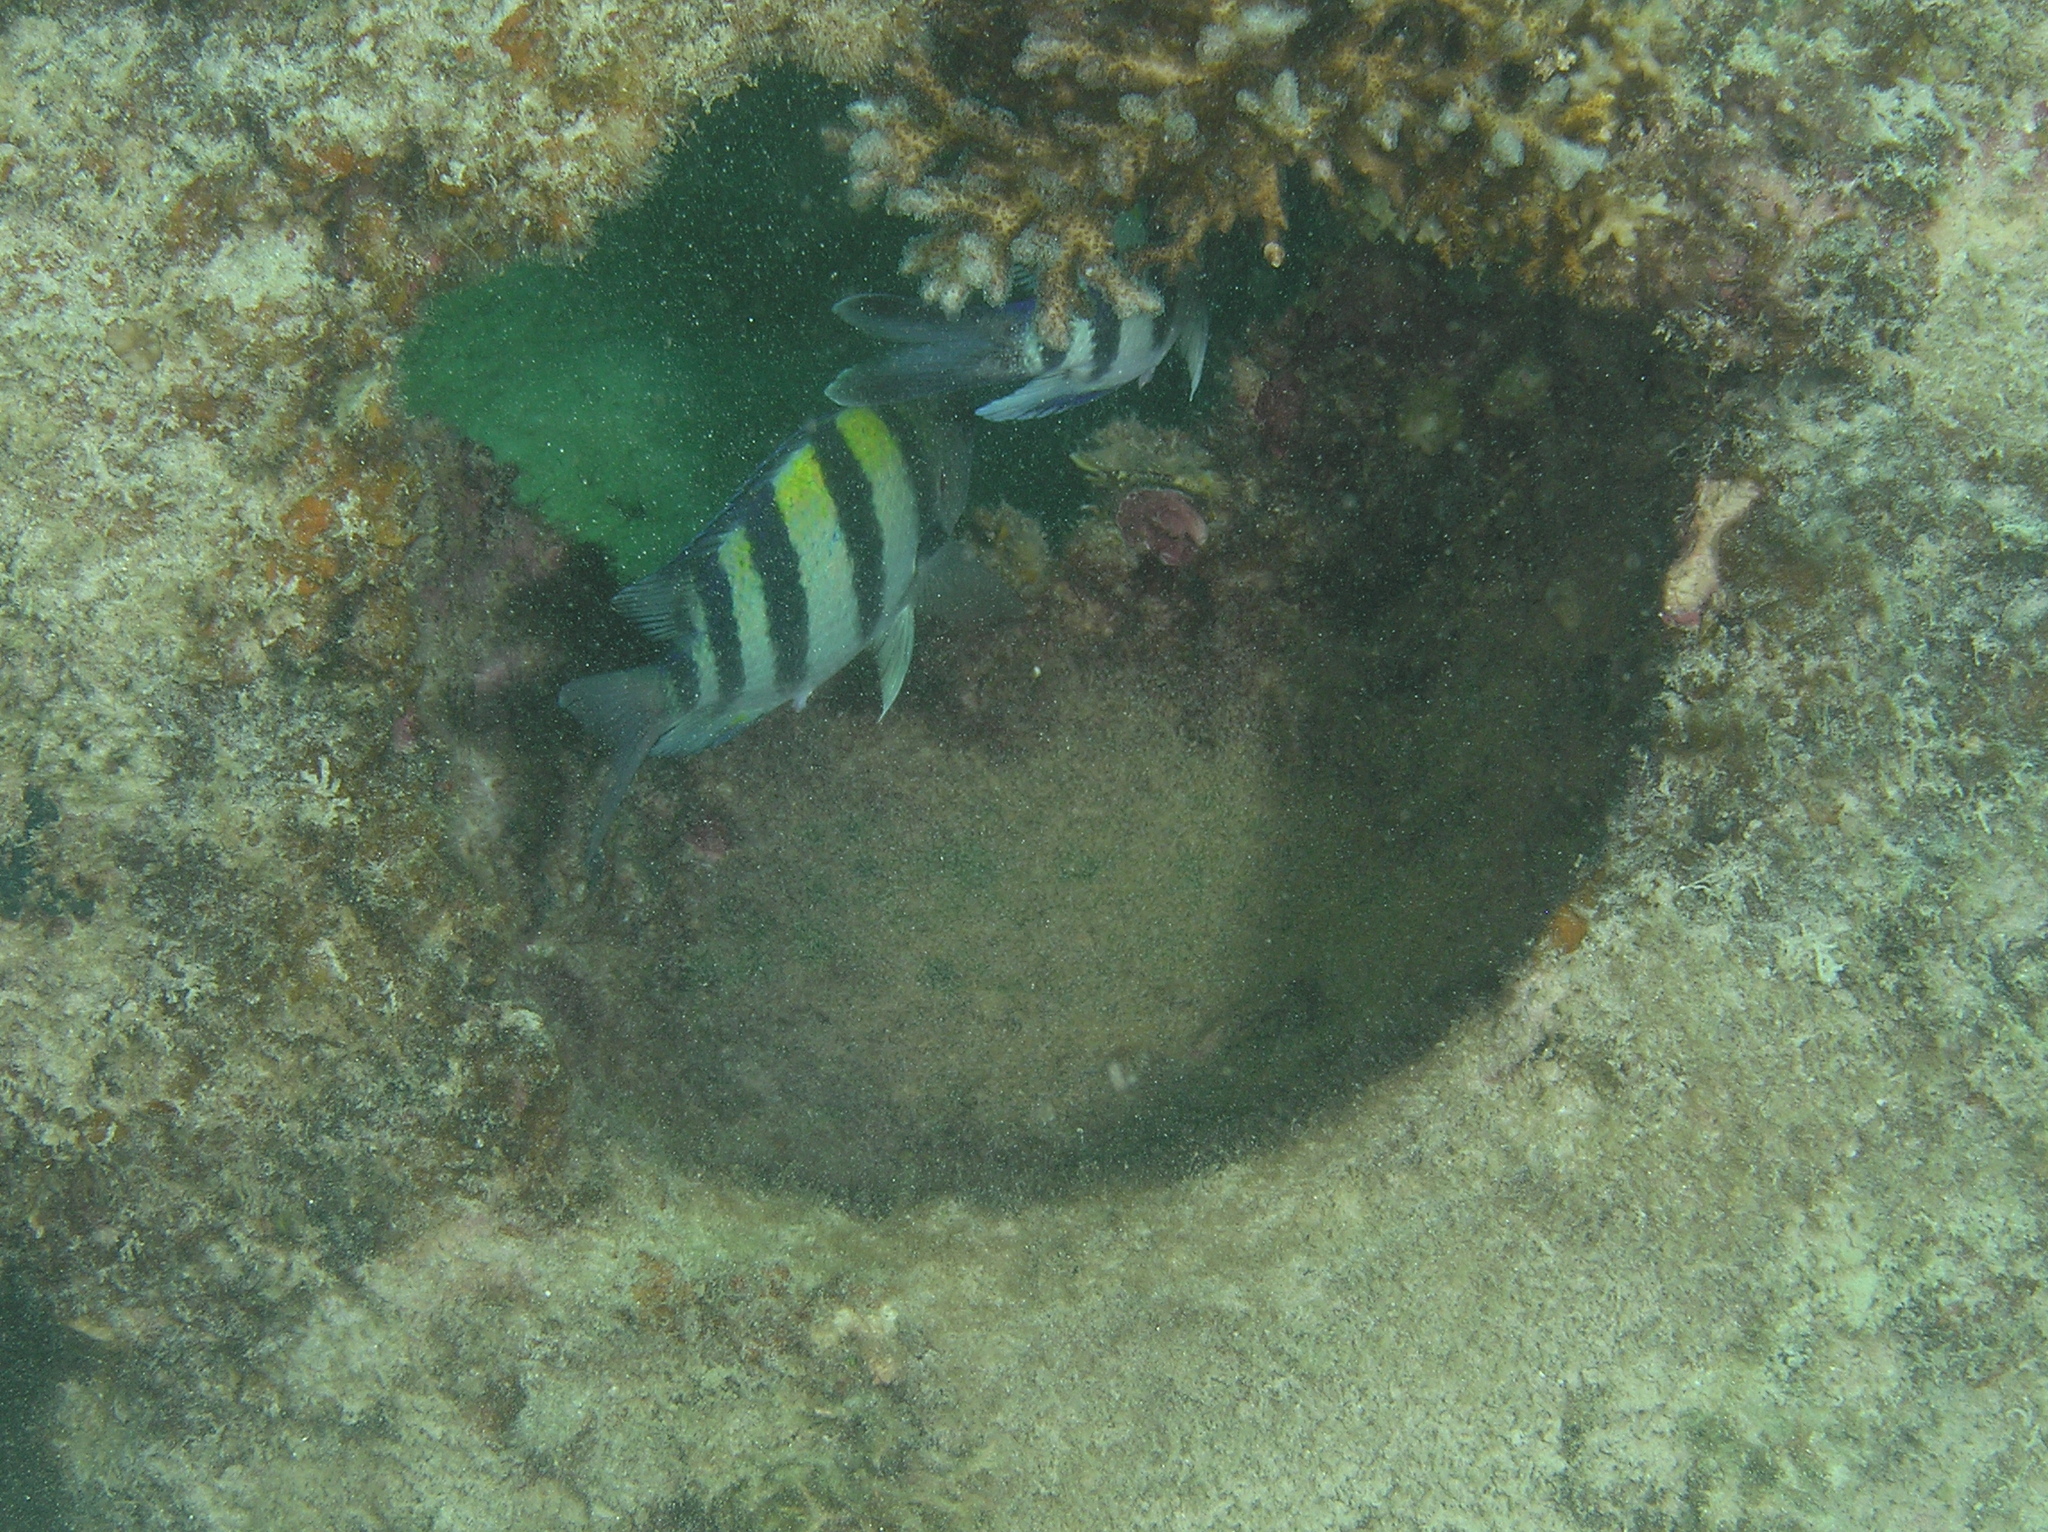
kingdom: Animalia
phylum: Chordata
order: Perciformes
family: Pomacentridae
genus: Abudefduf
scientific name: Abudefduf vaigiensis
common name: Indo-pacific sergeant
